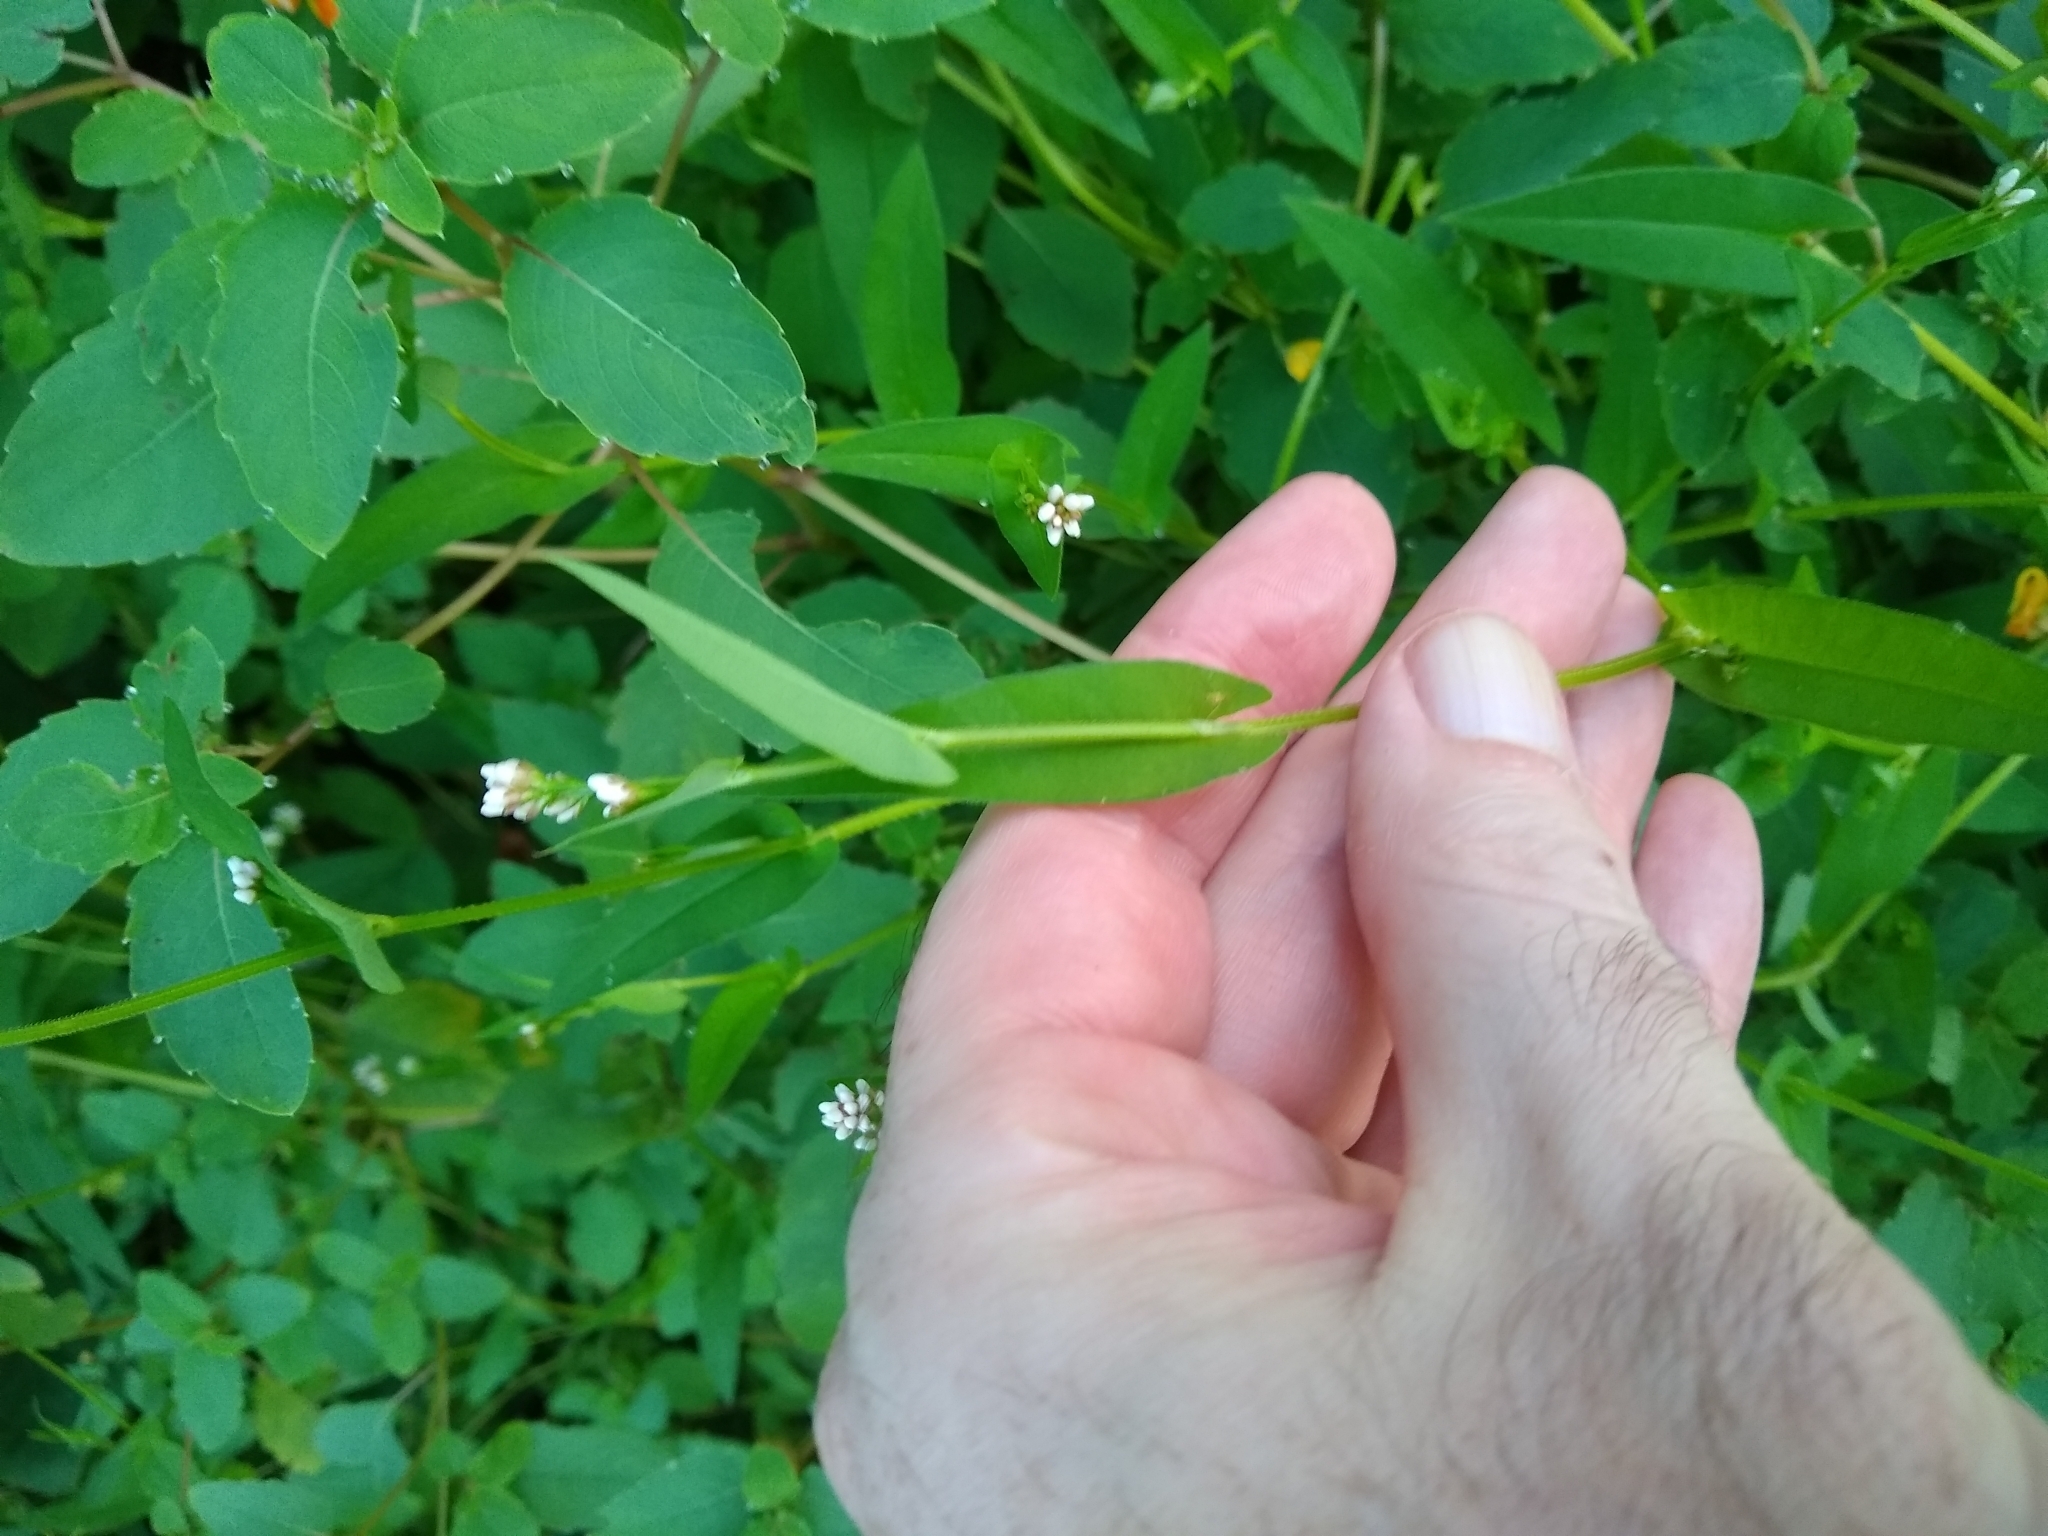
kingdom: Plantae
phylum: Tracheophyta
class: Magnoliopsida
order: Caryophyllales
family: Polygonaceae
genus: Persicaria
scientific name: Persicaria sagittata
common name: American tearthumb
